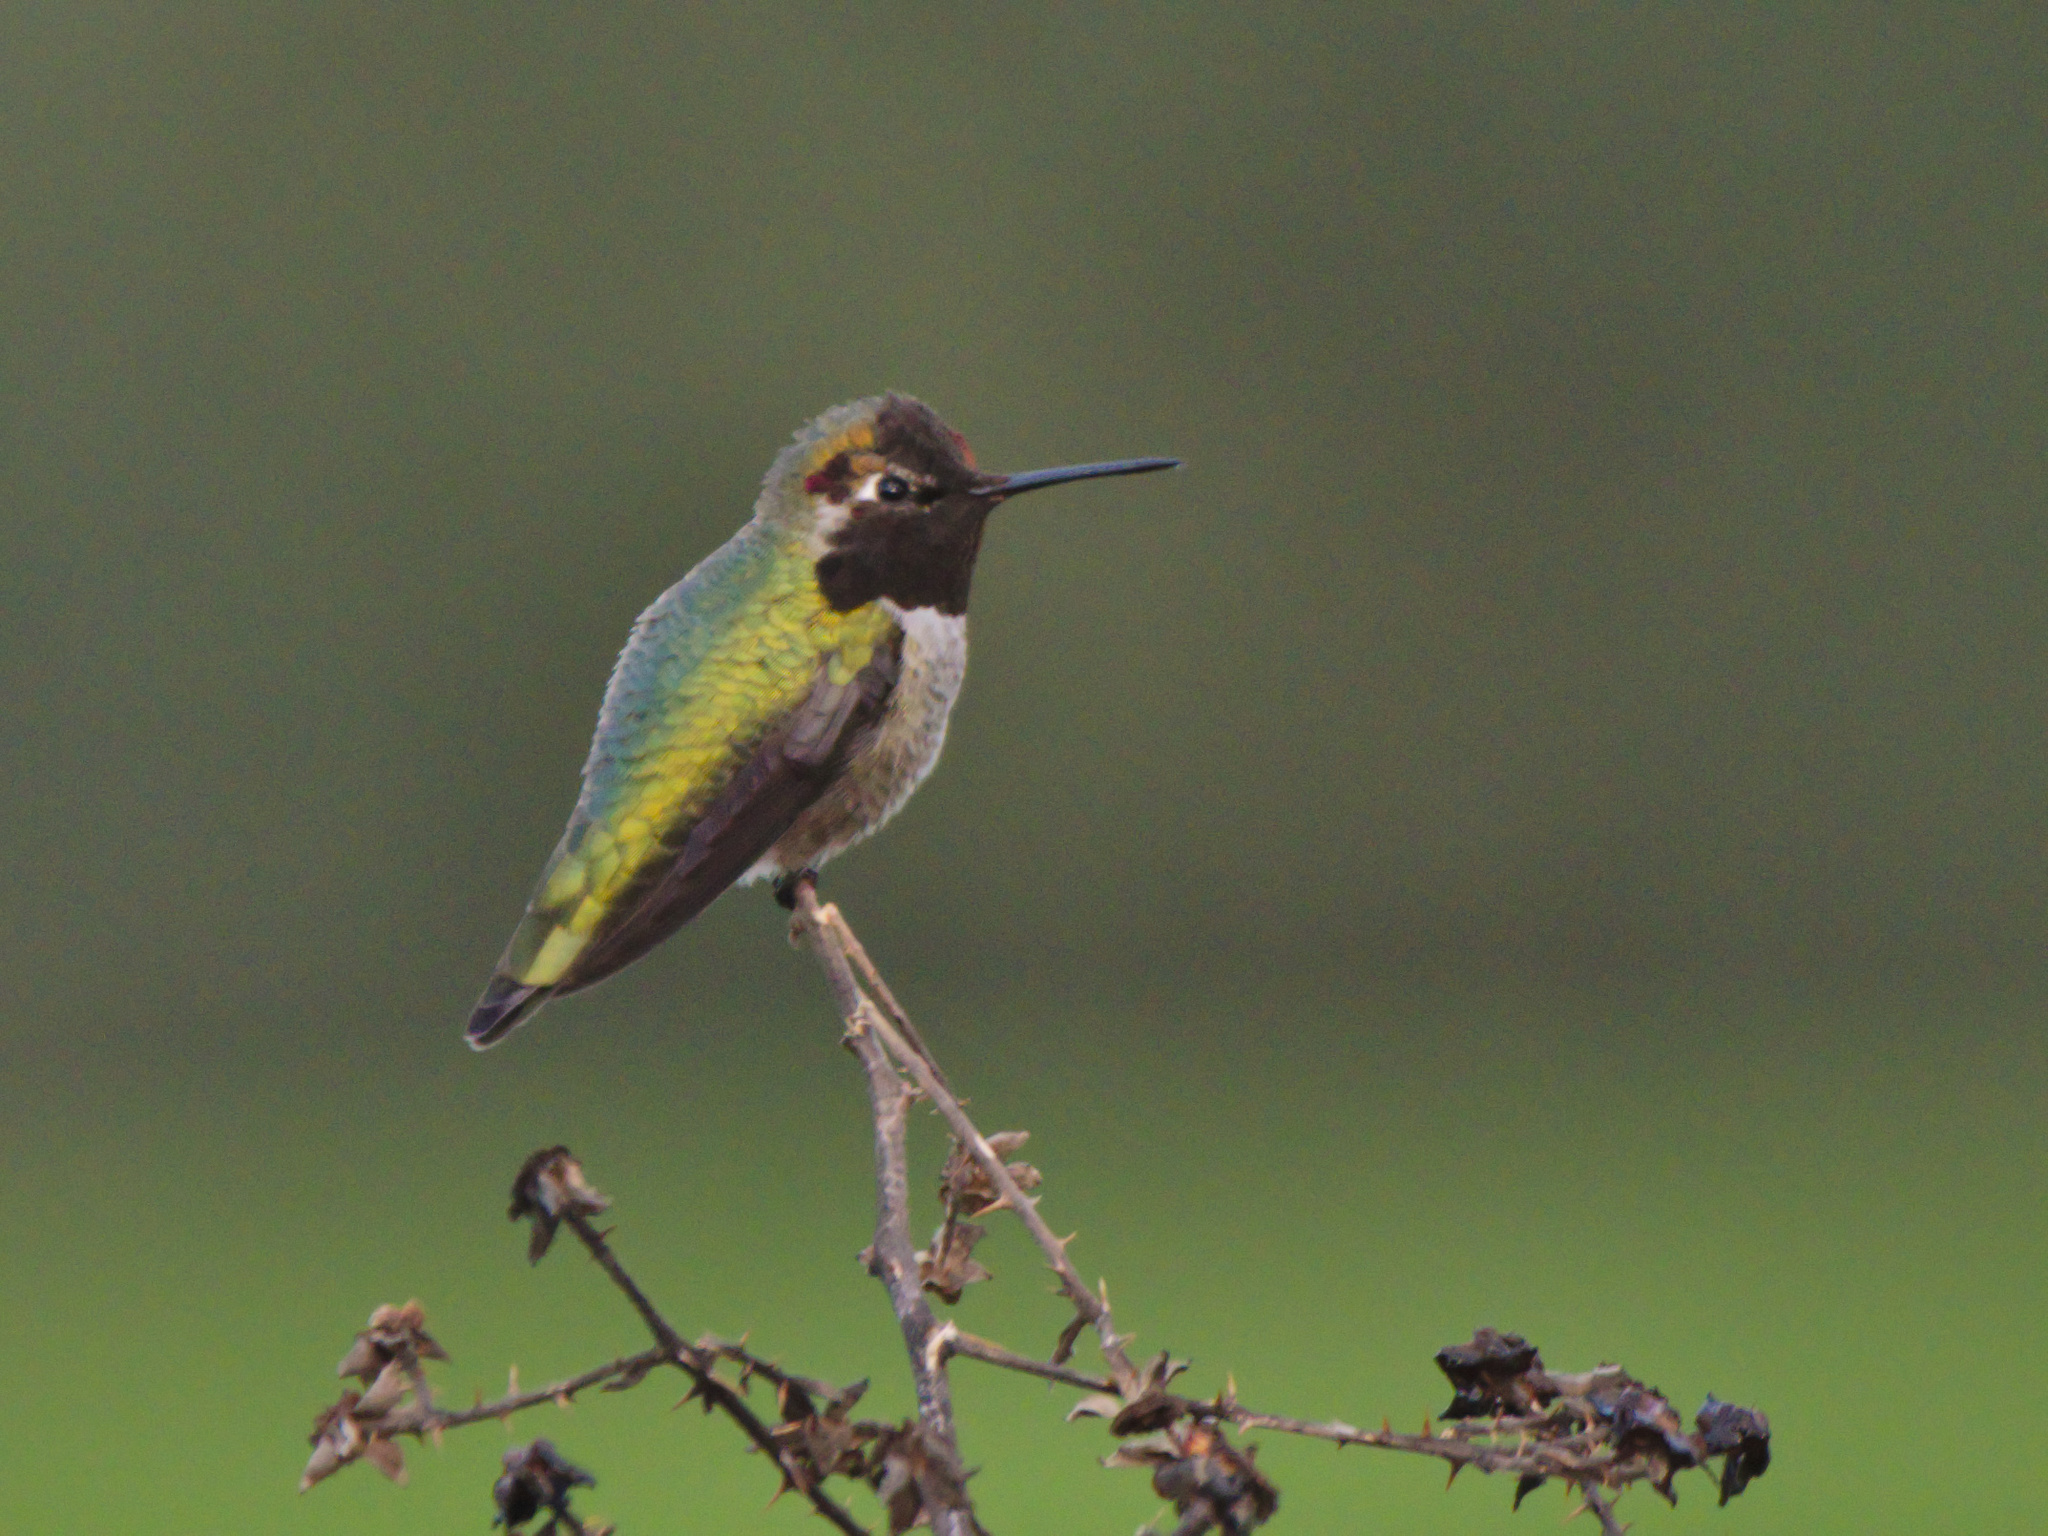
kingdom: Animalia
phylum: Chordata
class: Aves
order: Apodiformes
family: Trochilidae
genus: Calypte
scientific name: Calypte anna
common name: Anna's hummingbird
